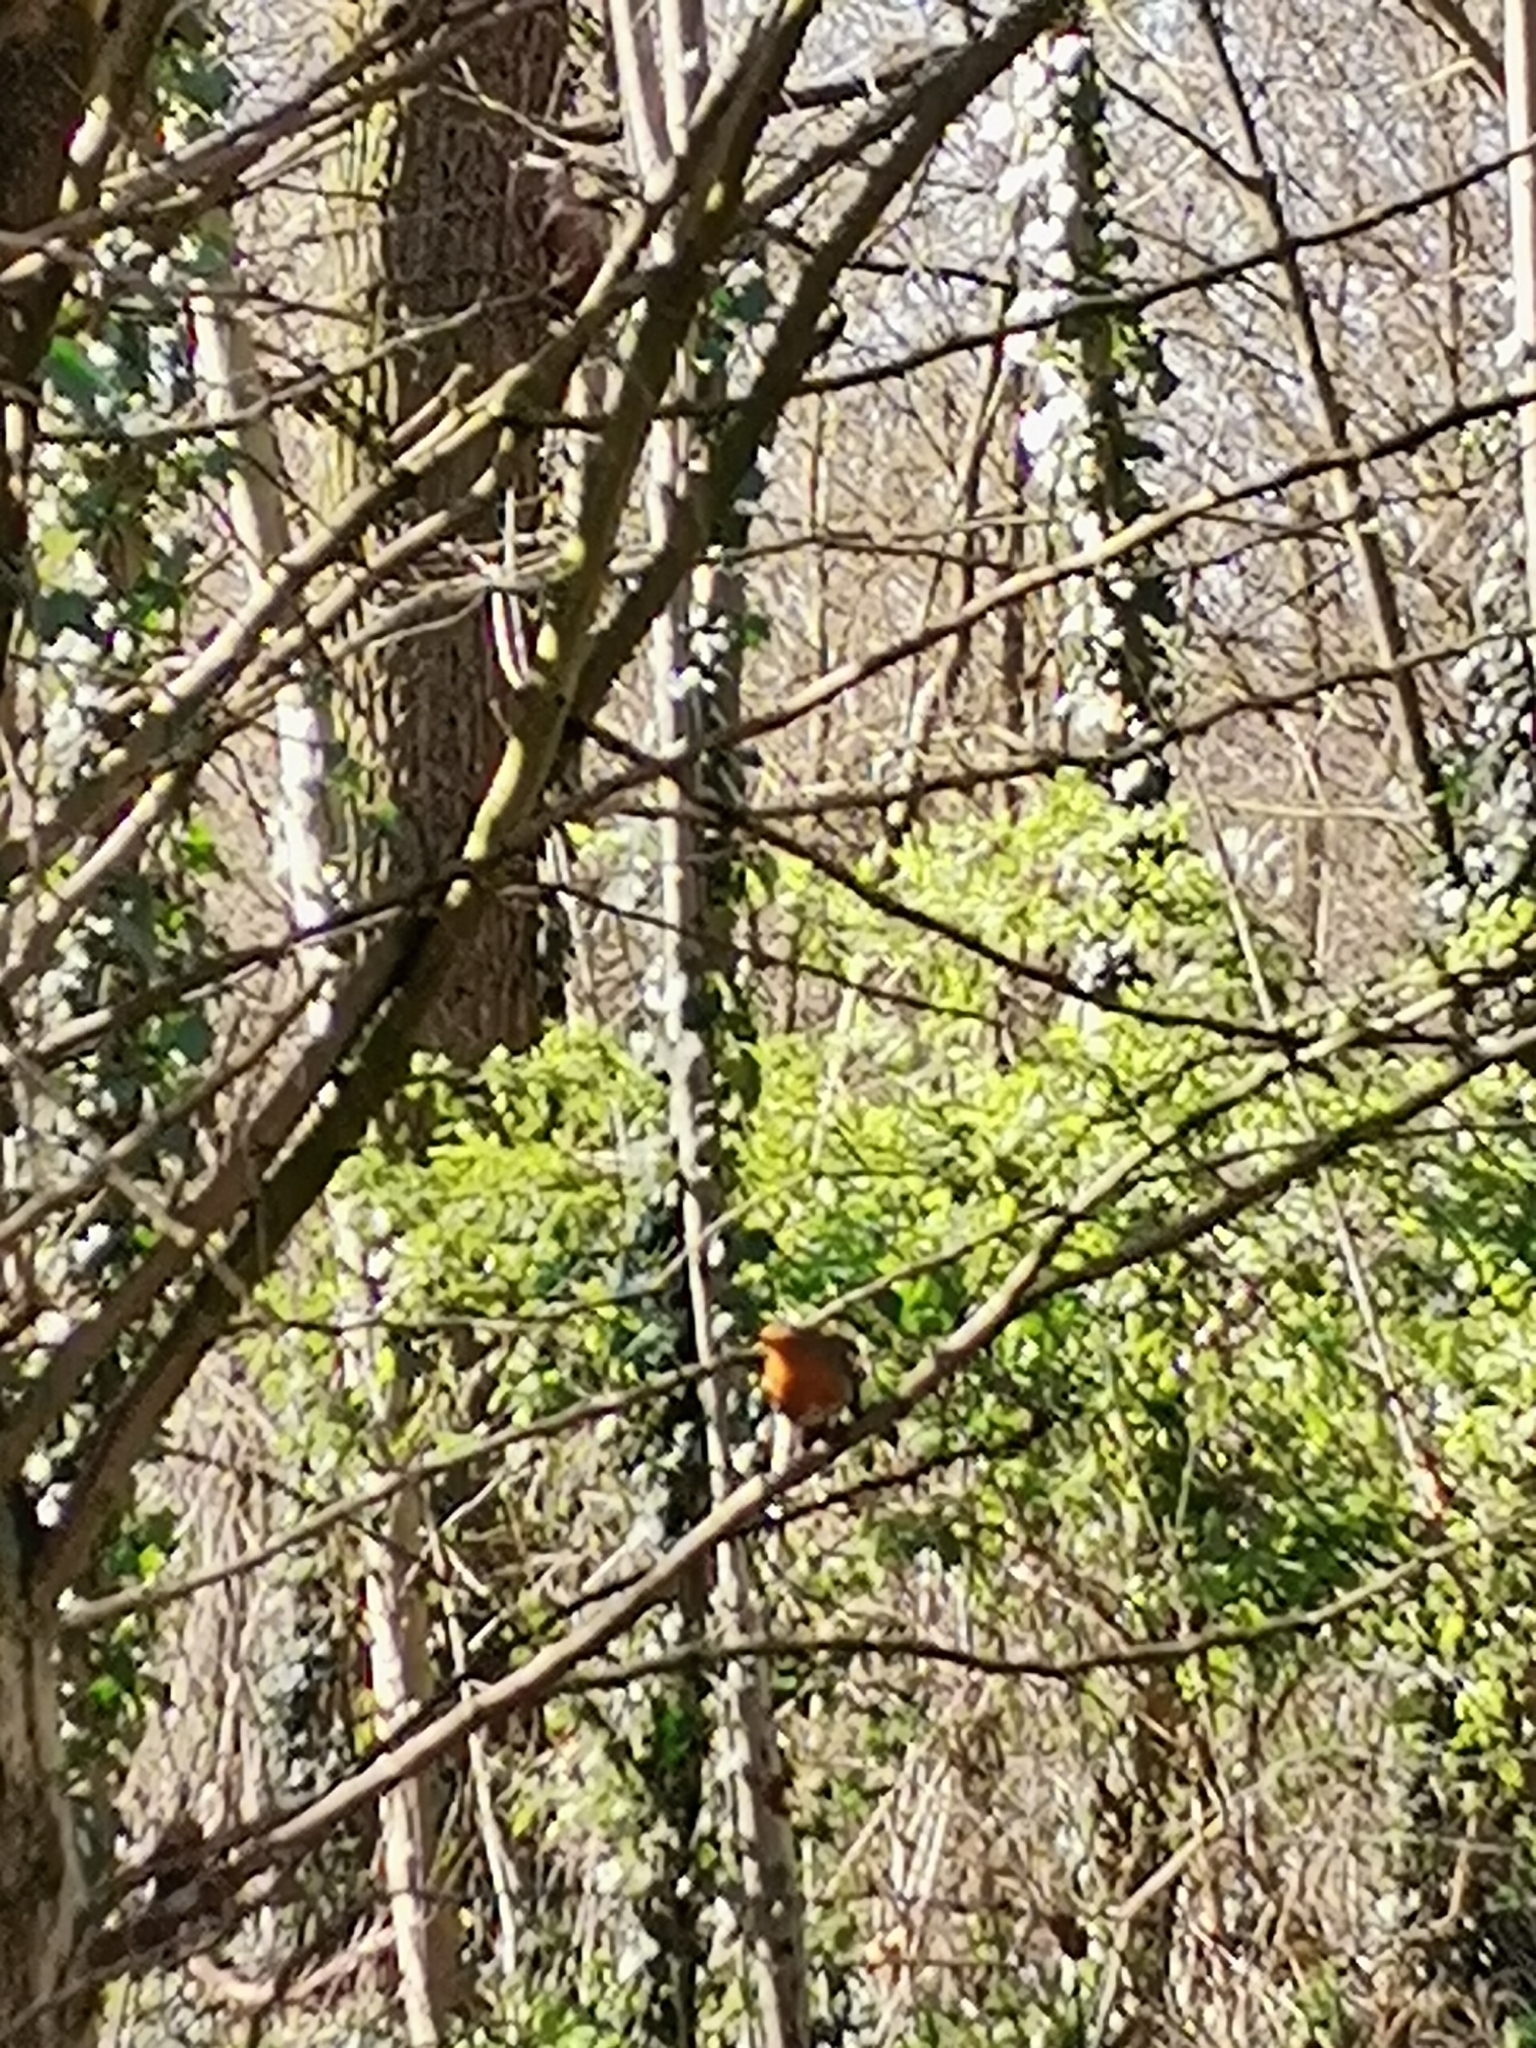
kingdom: Animalia
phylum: Chordata
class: Aves
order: Passeriformes
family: Muscicapidae
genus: Erithacus
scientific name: Erithacus rubecula
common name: European robin
